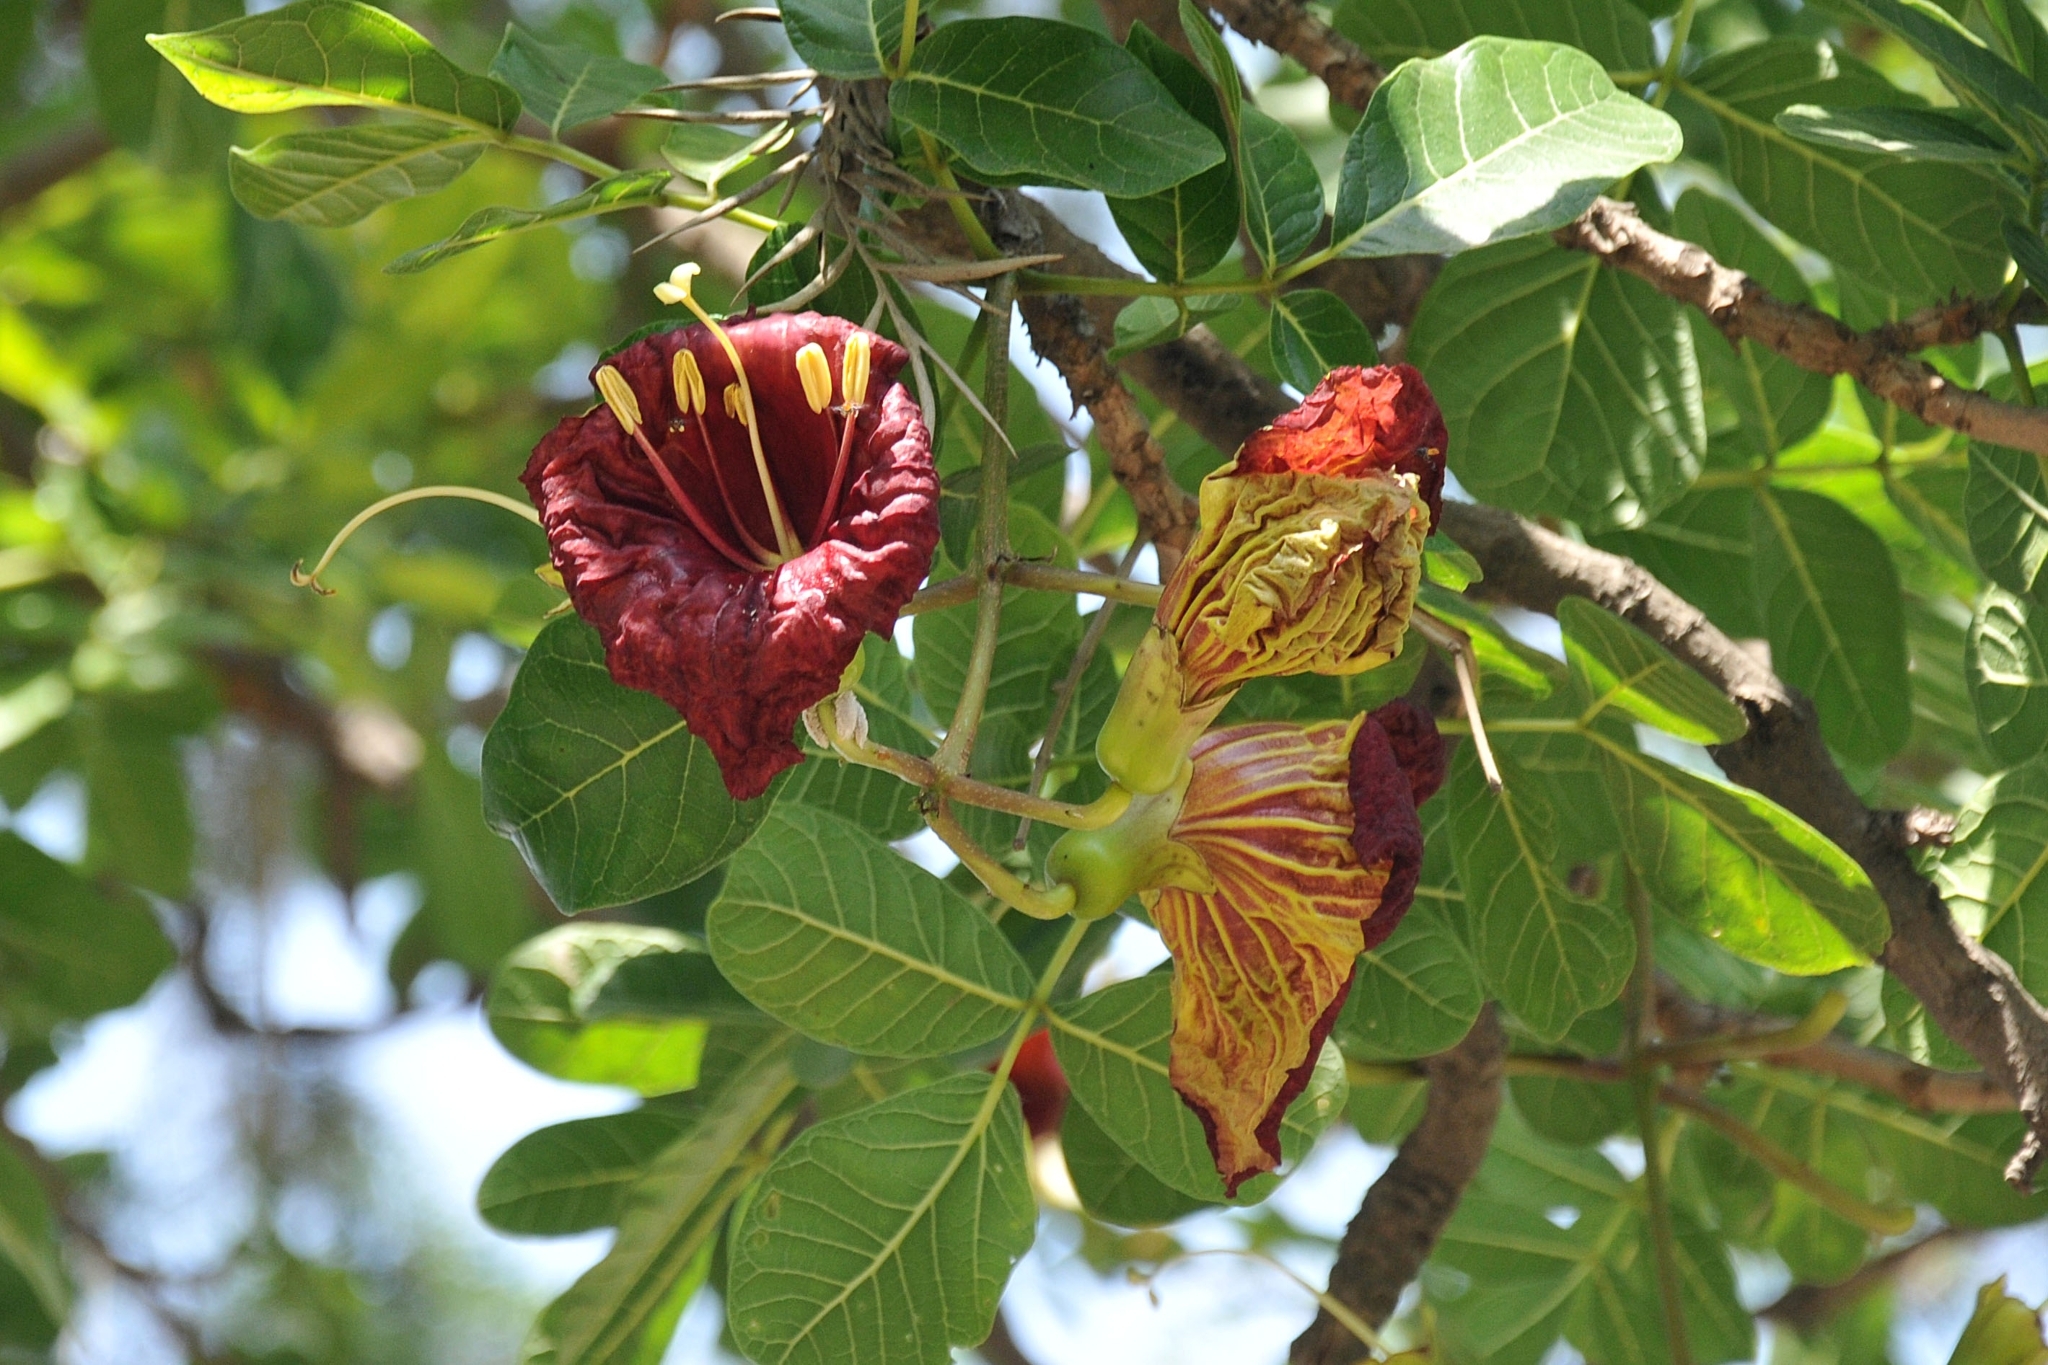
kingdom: Plantae
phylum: Tracheophyta
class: Magnoliopsida
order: Lamiales
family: Bignoniaceae
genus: Kigelia
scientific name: Kigelia africana
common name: Sausage tree
